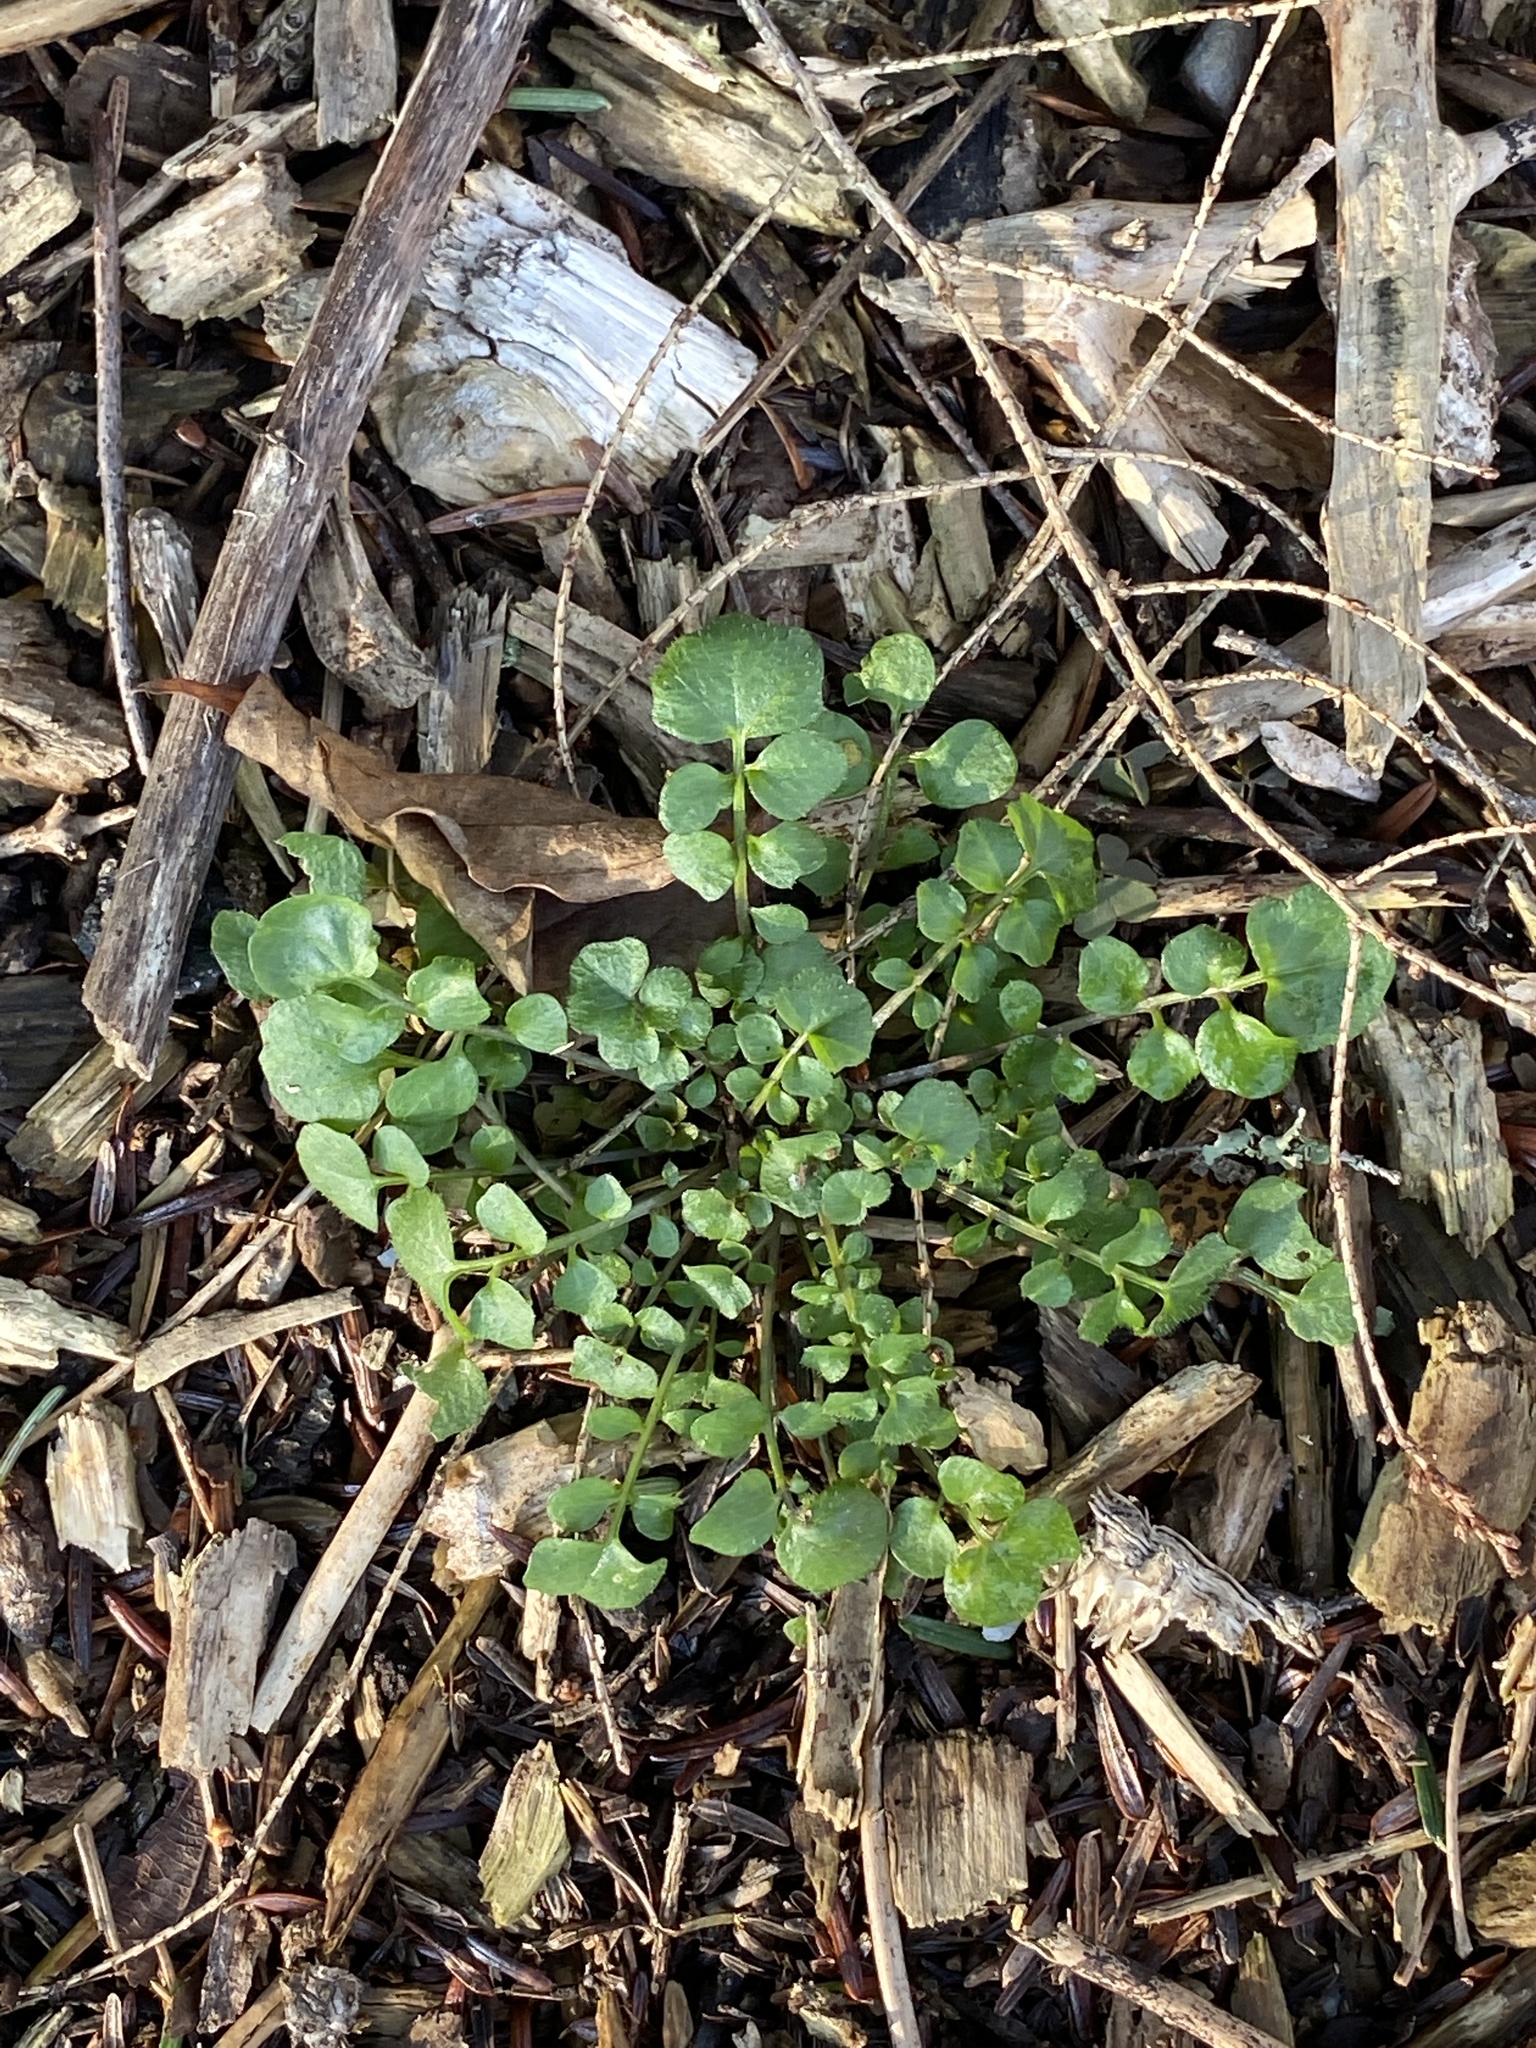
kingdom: Plantae
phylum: Tracheophyta
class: Magnoliopsida
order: Brassicales
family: Brassicaceae
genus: Cardamine
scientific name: Cardamine hirsuta
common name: Hairy bittercress
